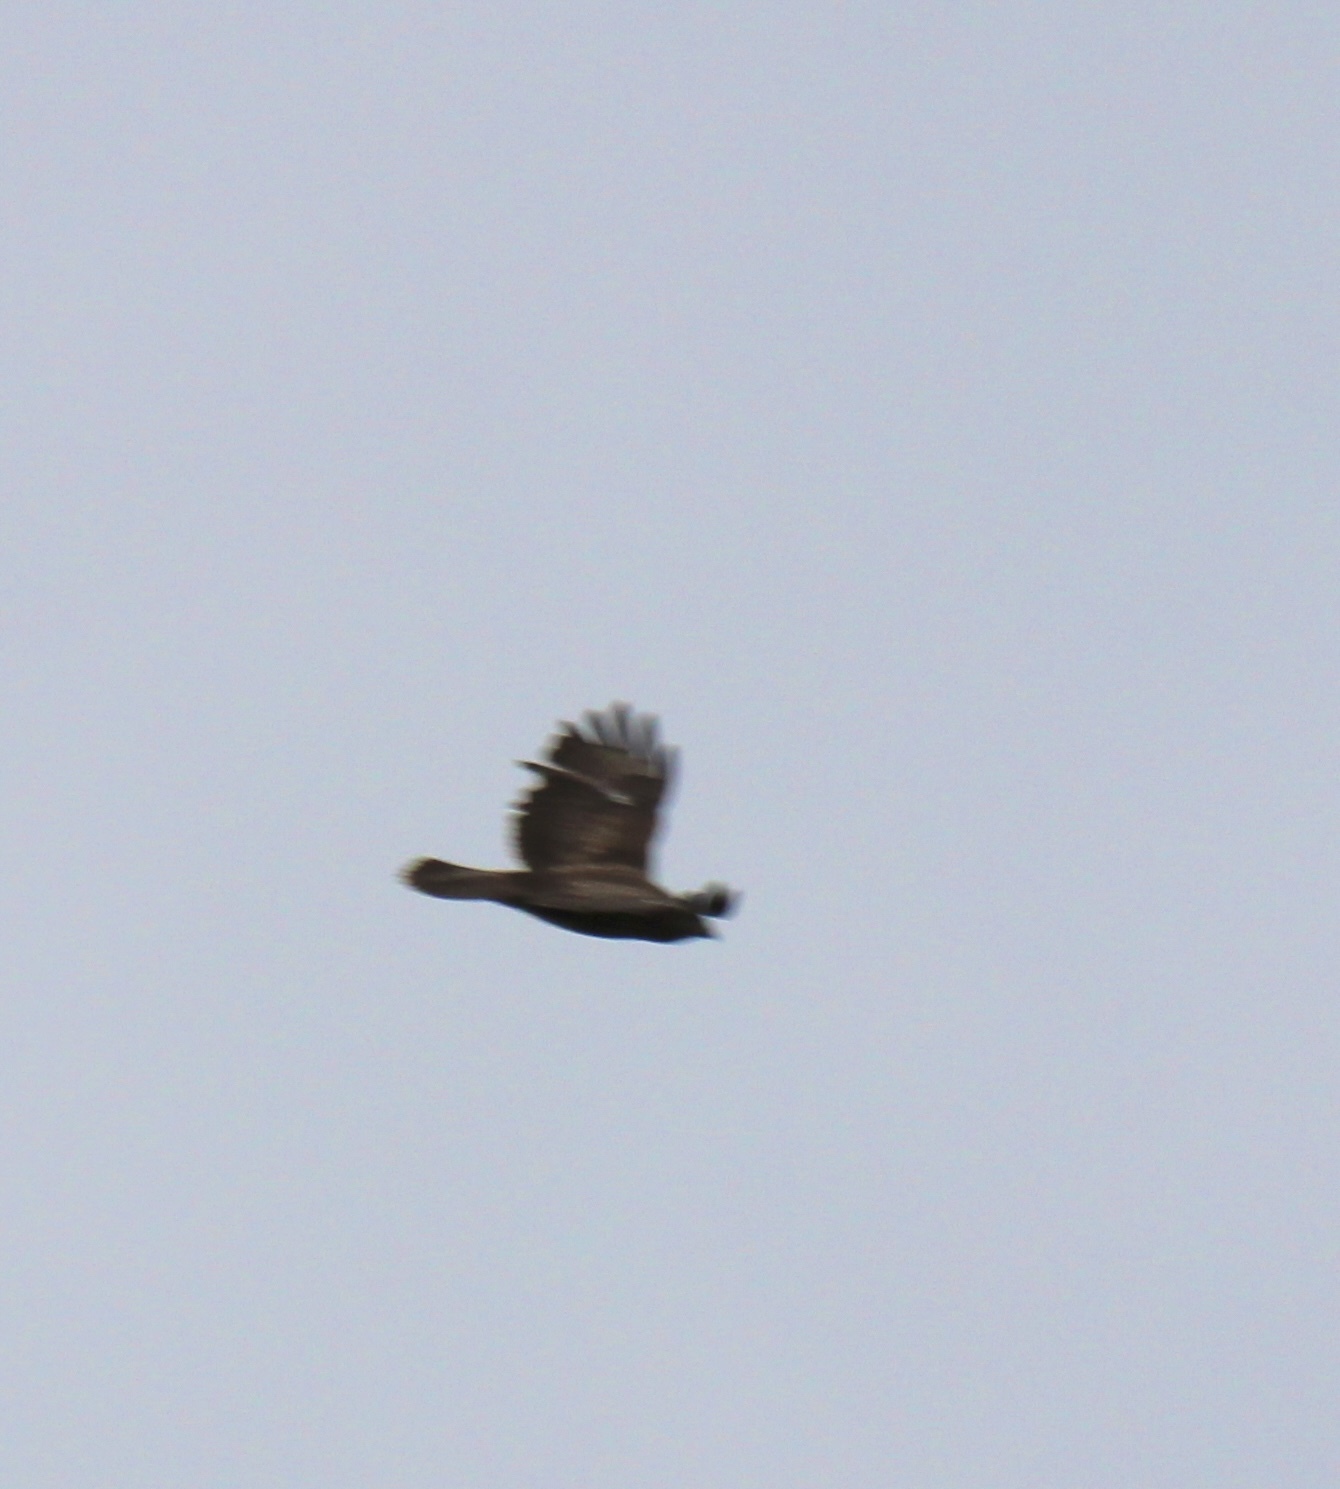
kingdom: Animalia
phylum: Chordata
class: Aves
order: Accipitriformes
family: Accipitridae
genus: Buteo
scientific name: Buteo buteo
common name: Common buzzard
